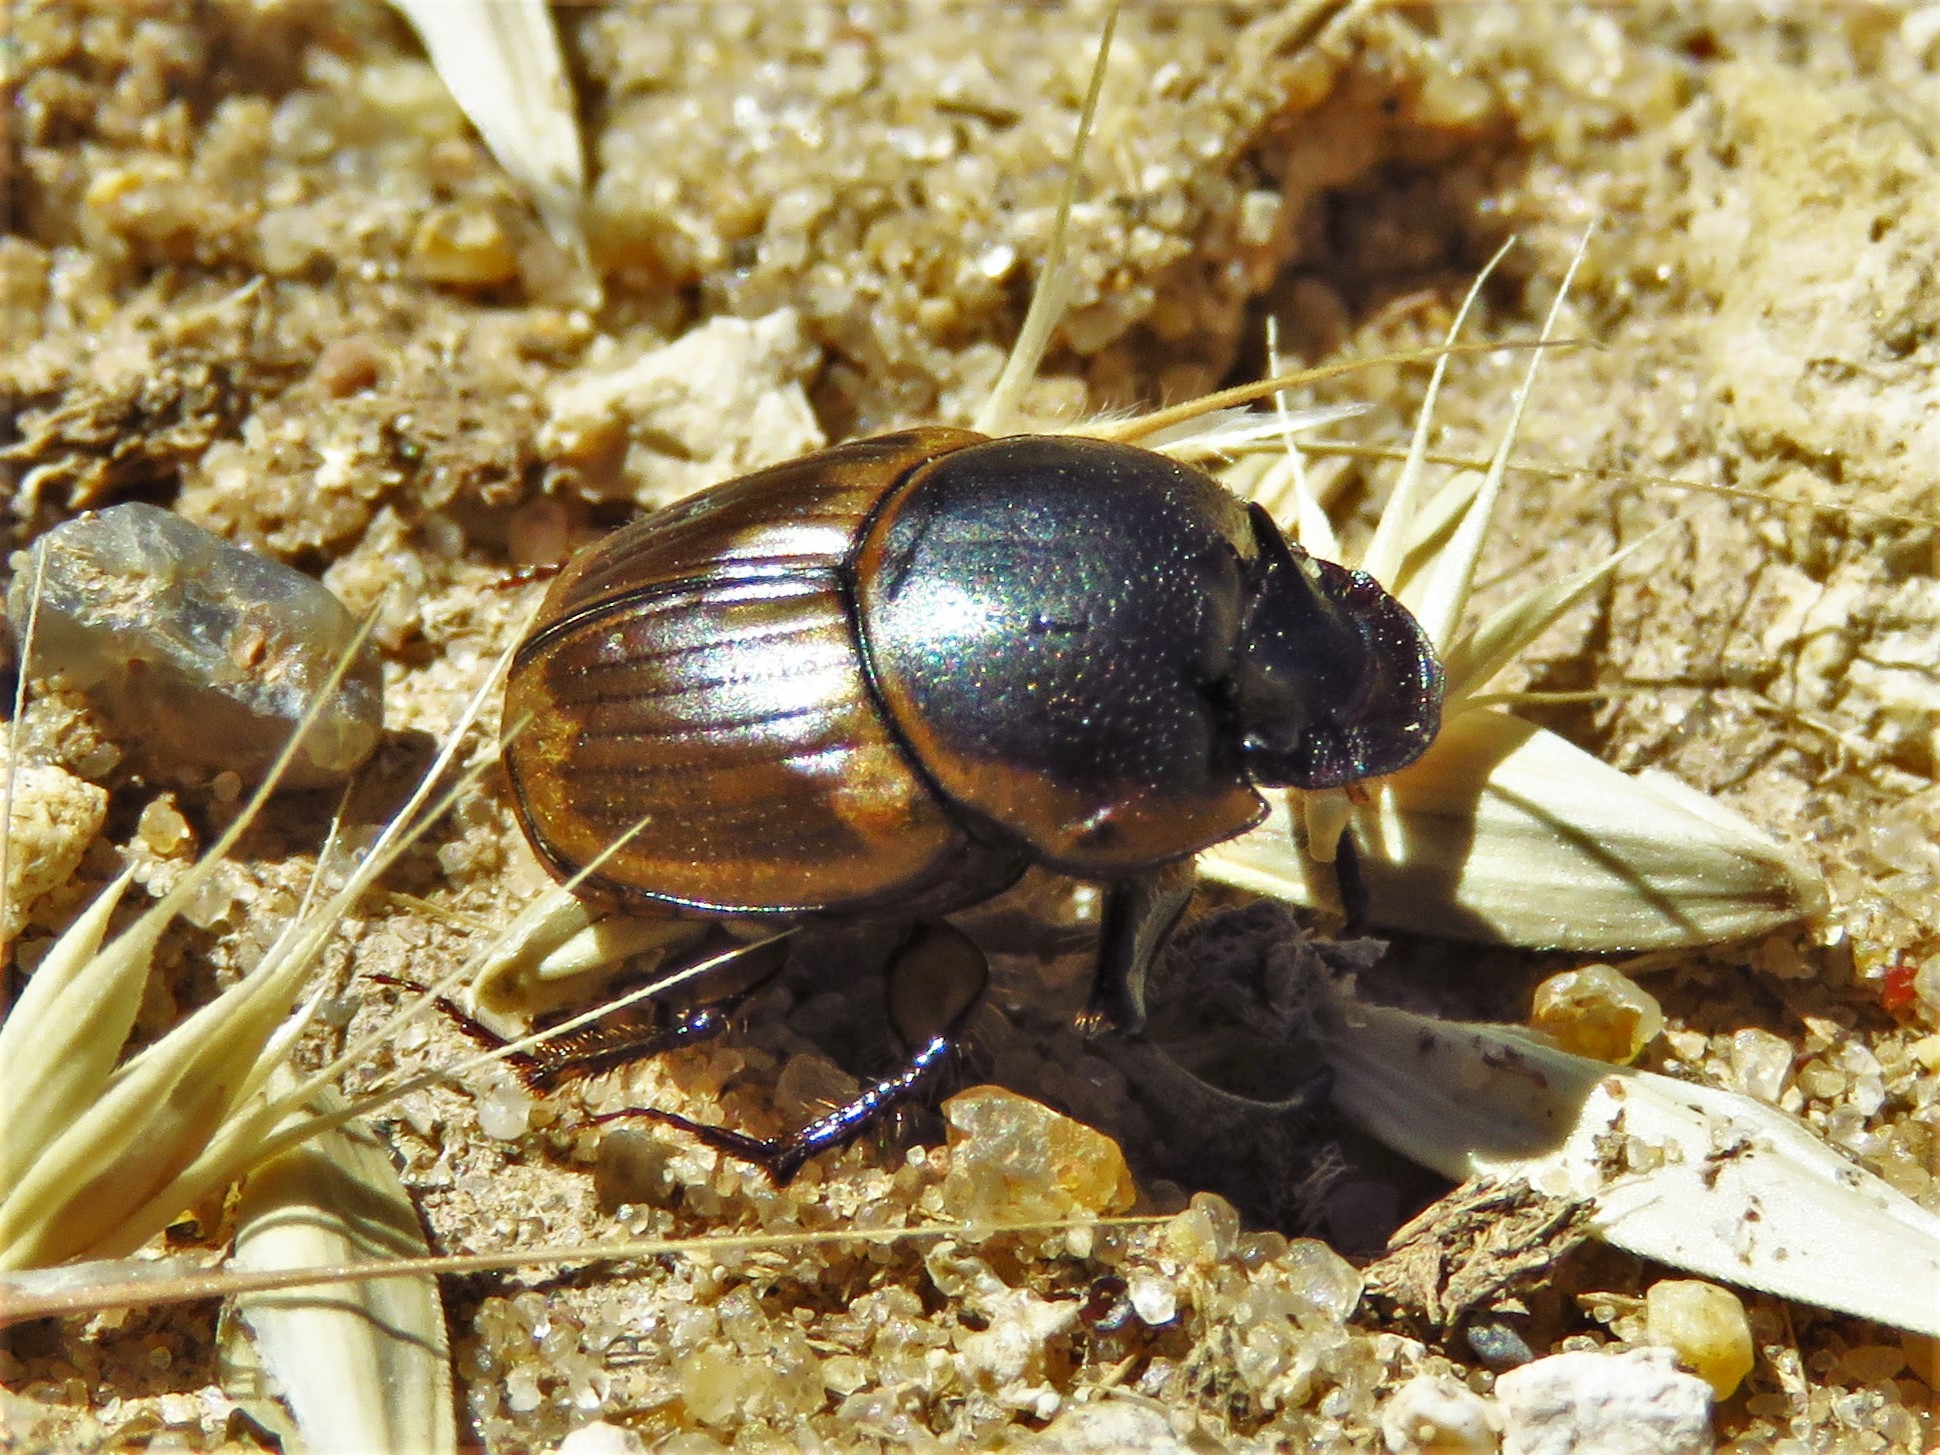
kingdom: Animalia
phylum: Arthropoda
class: Insecta
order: Coleoptera
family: Scarabaeidae
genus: Digitonthophagus
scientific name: Digitonthophagus gazella
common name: Brown dung beetle
